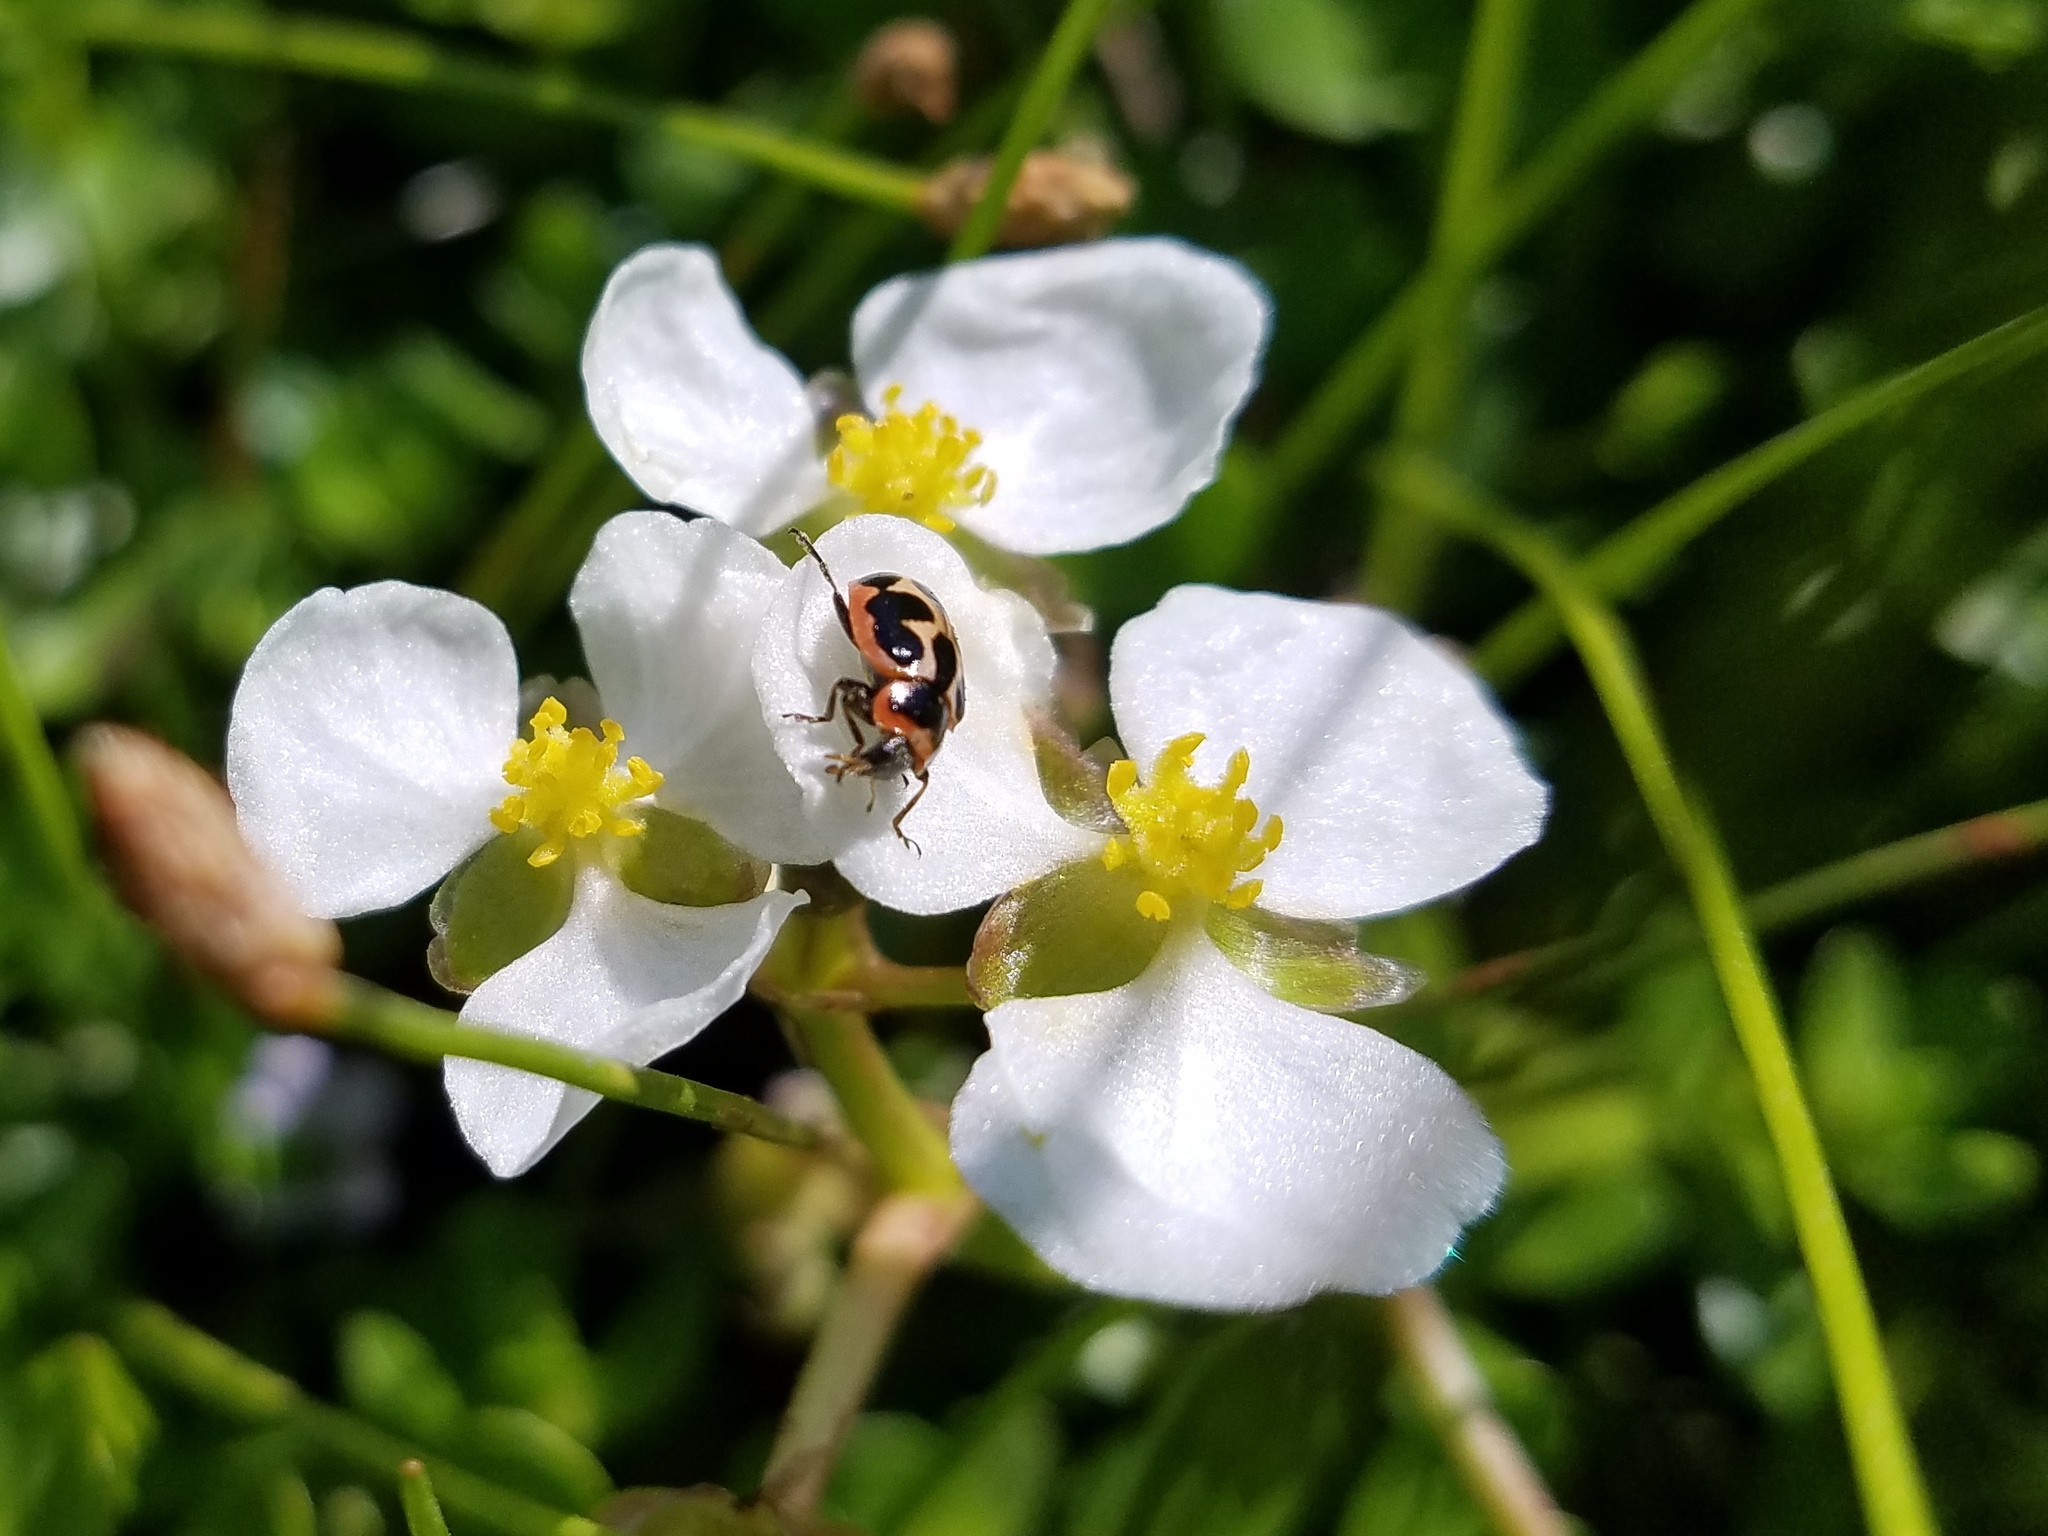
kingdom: Animalia
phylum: Arthropoda
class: Insecta
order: Coleoptera
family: Coccinellidae
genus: Naemia
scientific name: Naemia seriata
